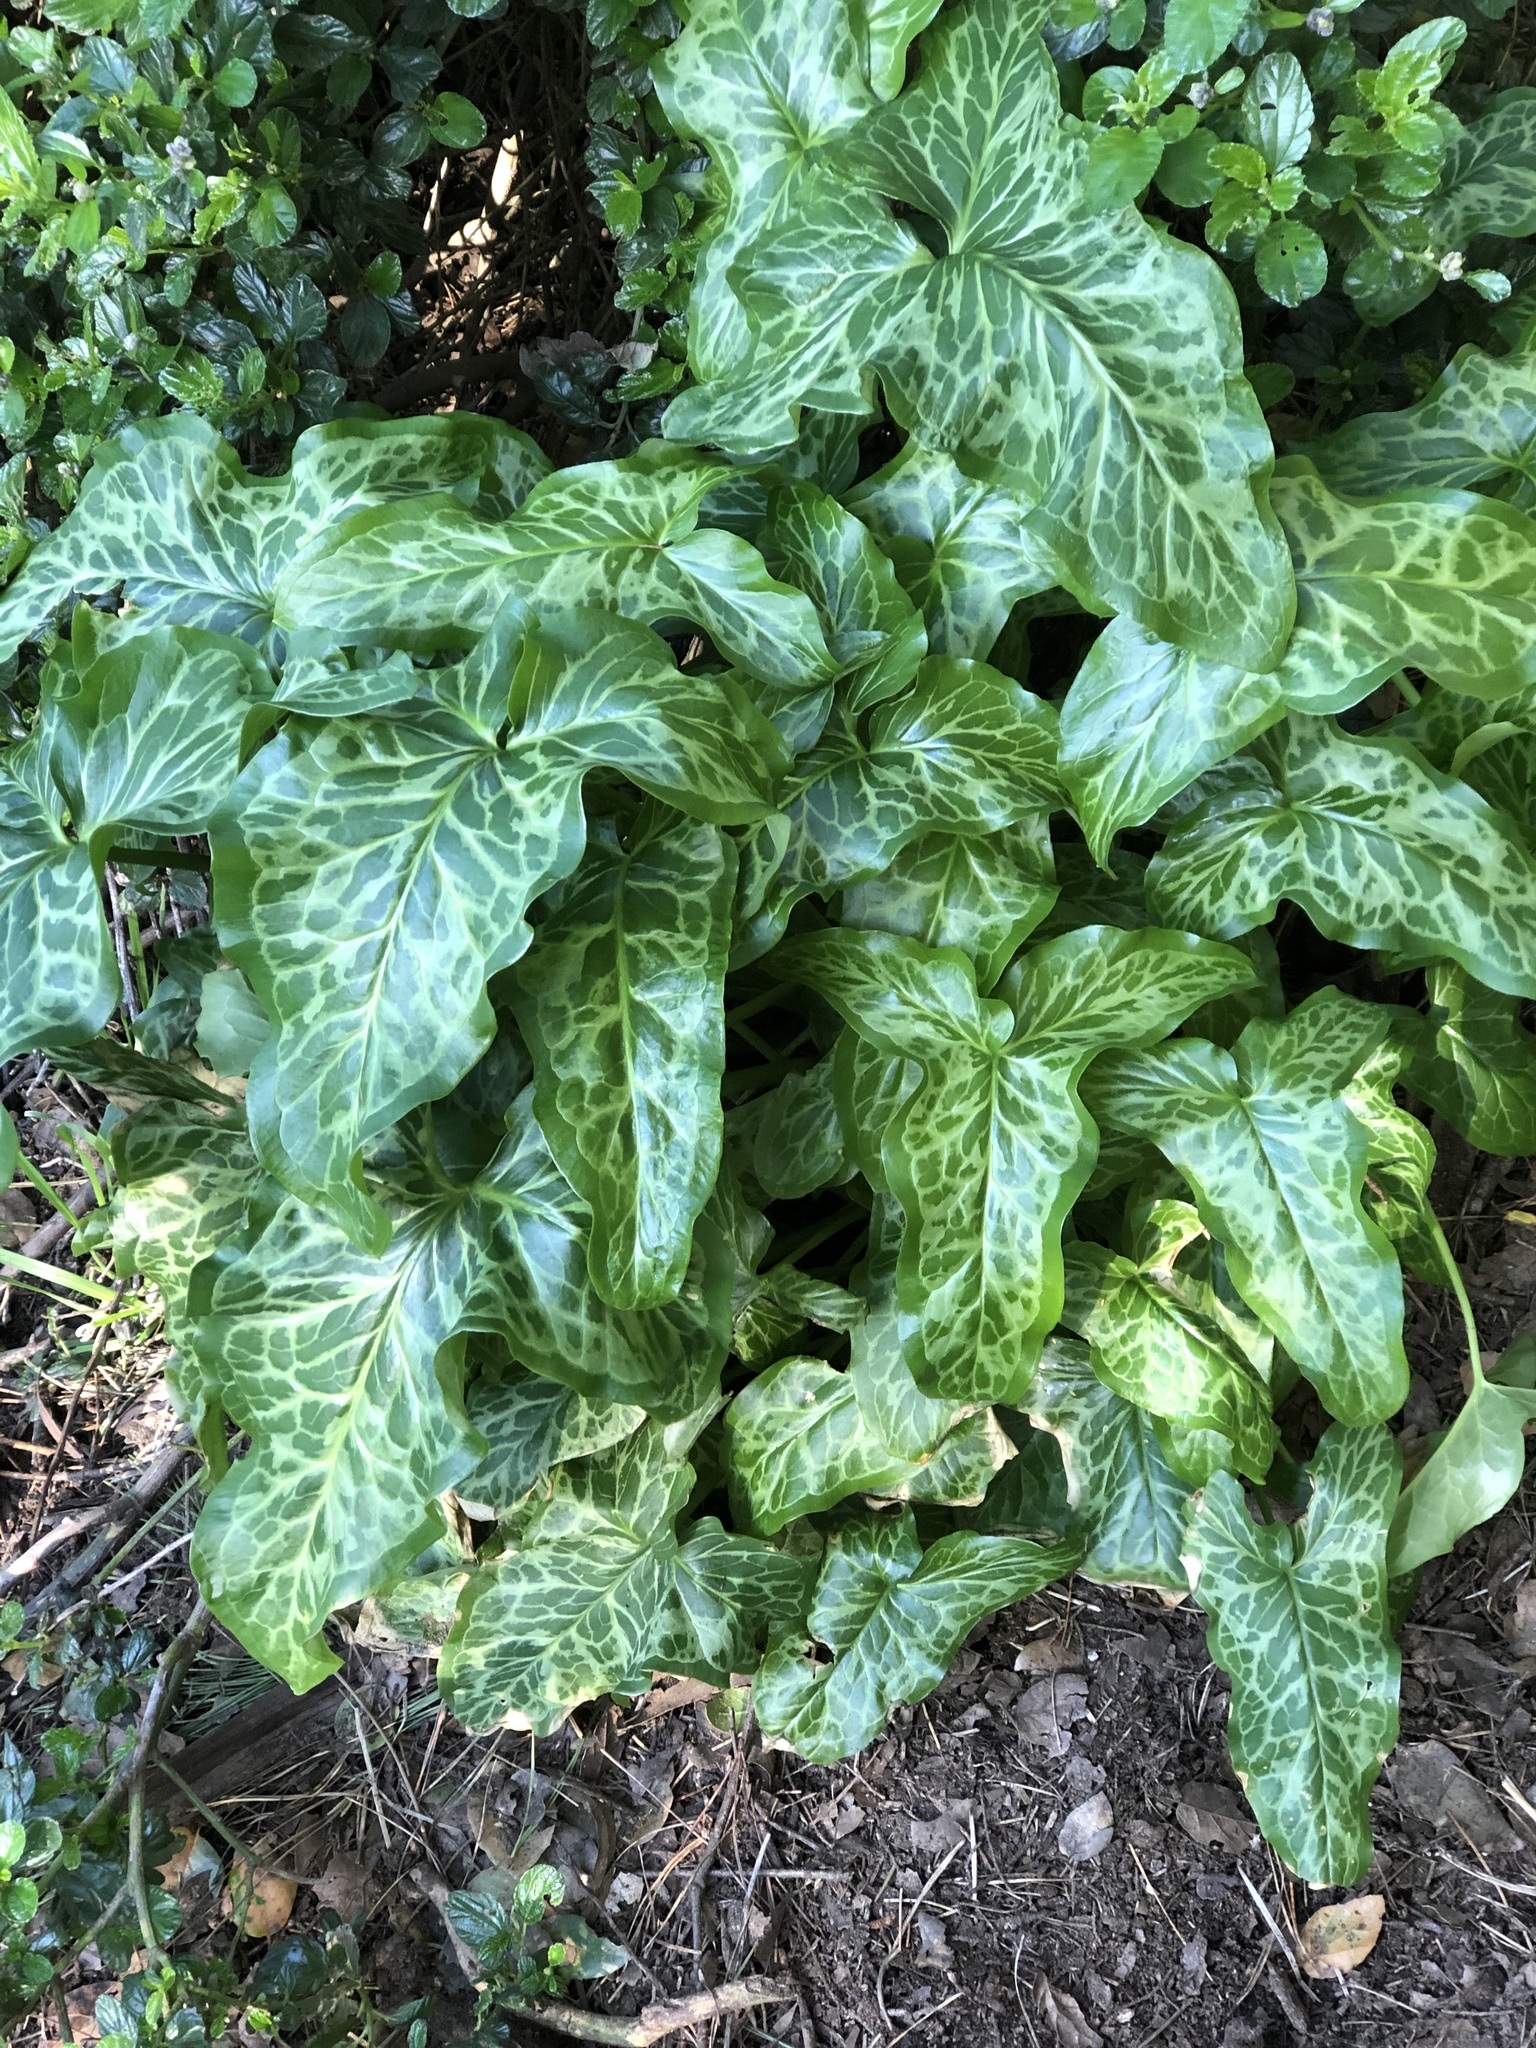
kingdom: Plantae
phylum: Tracheophyta
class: Liliopsida
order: Alismatales
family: Araceae
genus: Arum
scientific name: Arum italicum
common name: Italian lords-and-ladies
